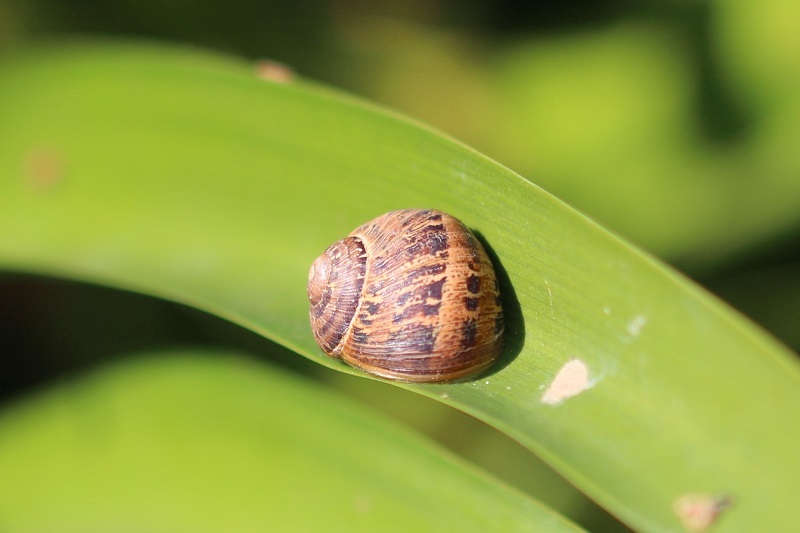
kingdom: Animalia
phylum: Mollusca
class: Gastropoda
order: Stylommatophora
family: Helicidae
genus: Cornu
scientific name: Cornu aspersum
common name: Brown garden snail
